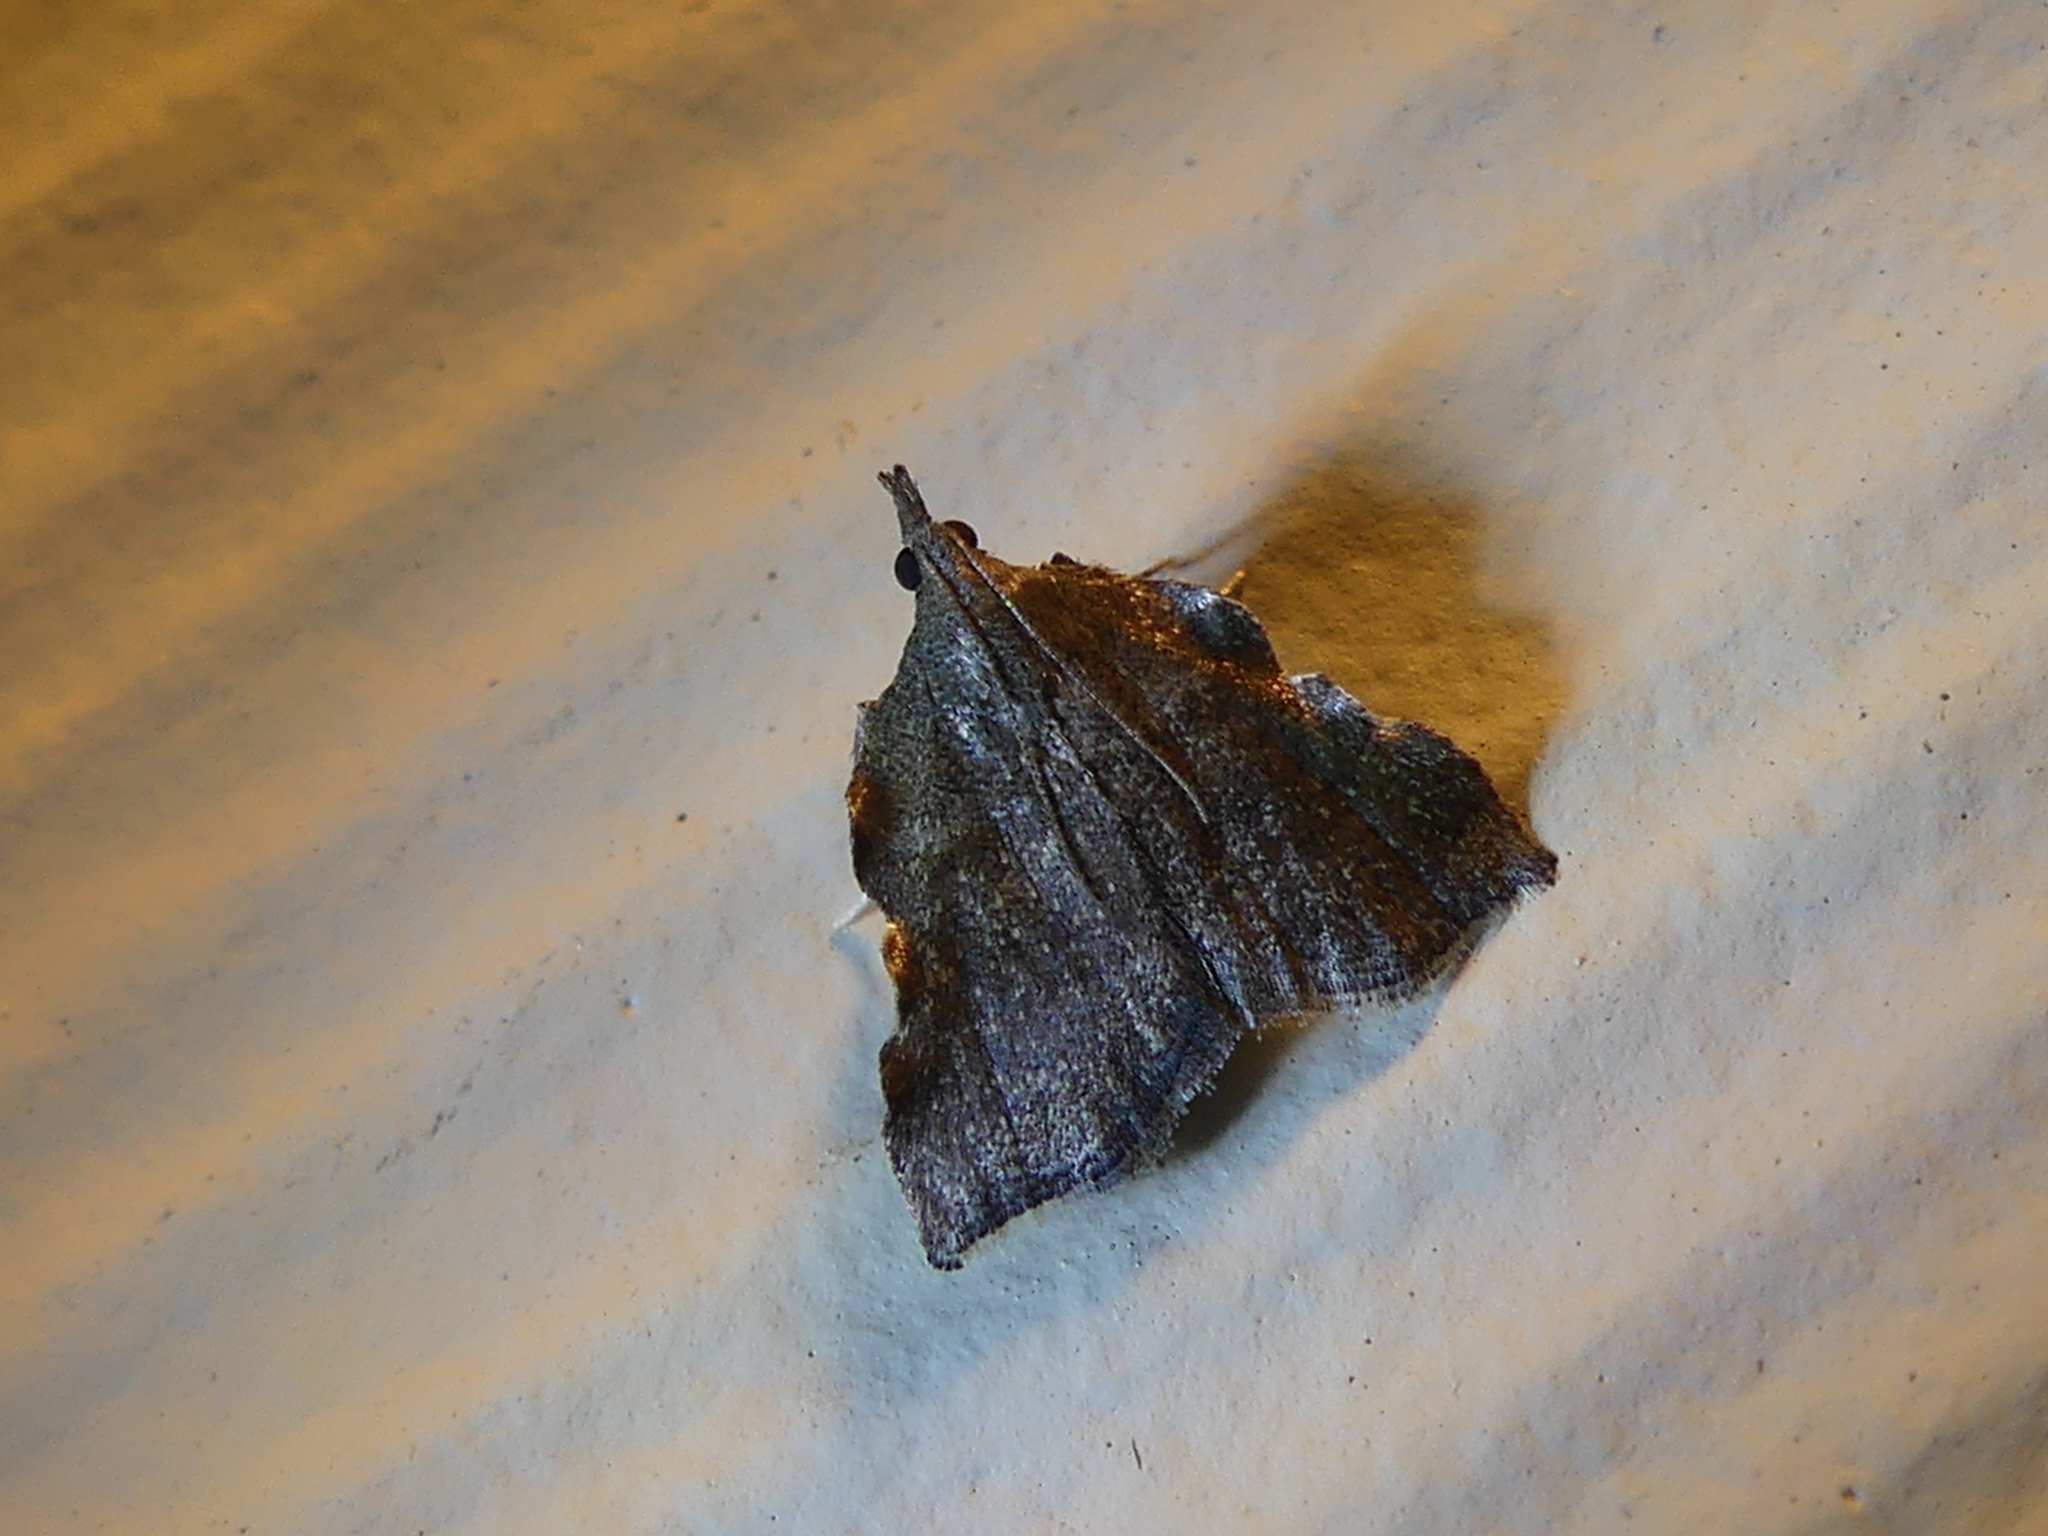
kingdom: Animalia
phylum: Arthropoda
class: Insecta
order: Lepidoptera
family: Pyralidae
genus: Salobrena
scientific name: Salobrena sincera
